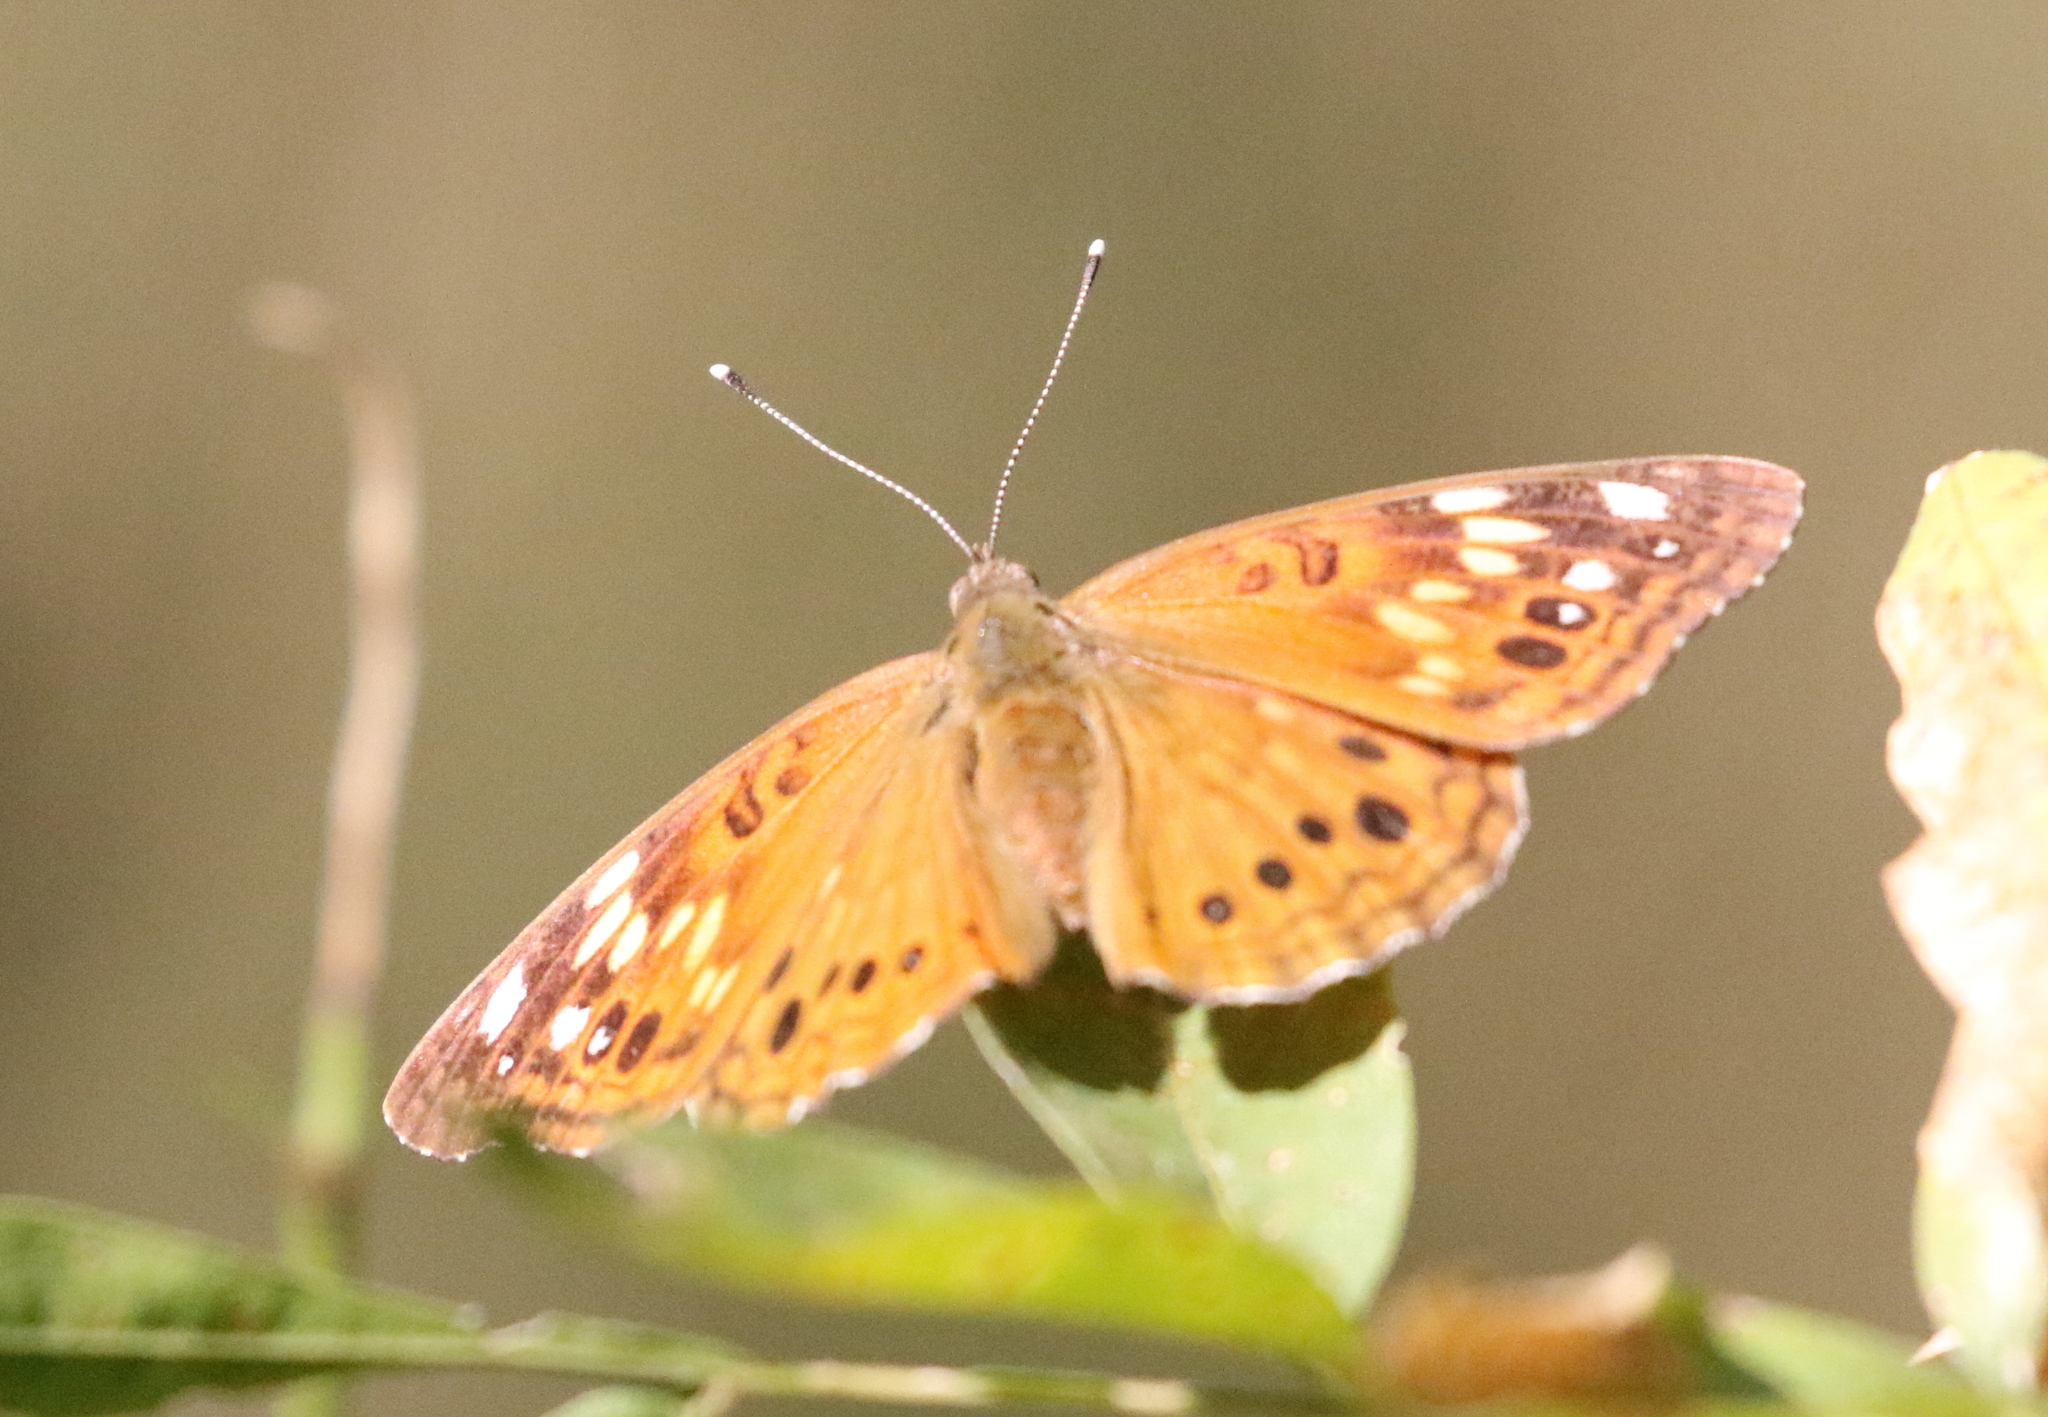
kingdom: Animalia
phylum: Arthropoda
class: Insecta
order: Lepidoptera
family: Nymphalidae
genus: Asterocampa
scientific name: Asterocampa celtis
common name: Hackberry emperor
